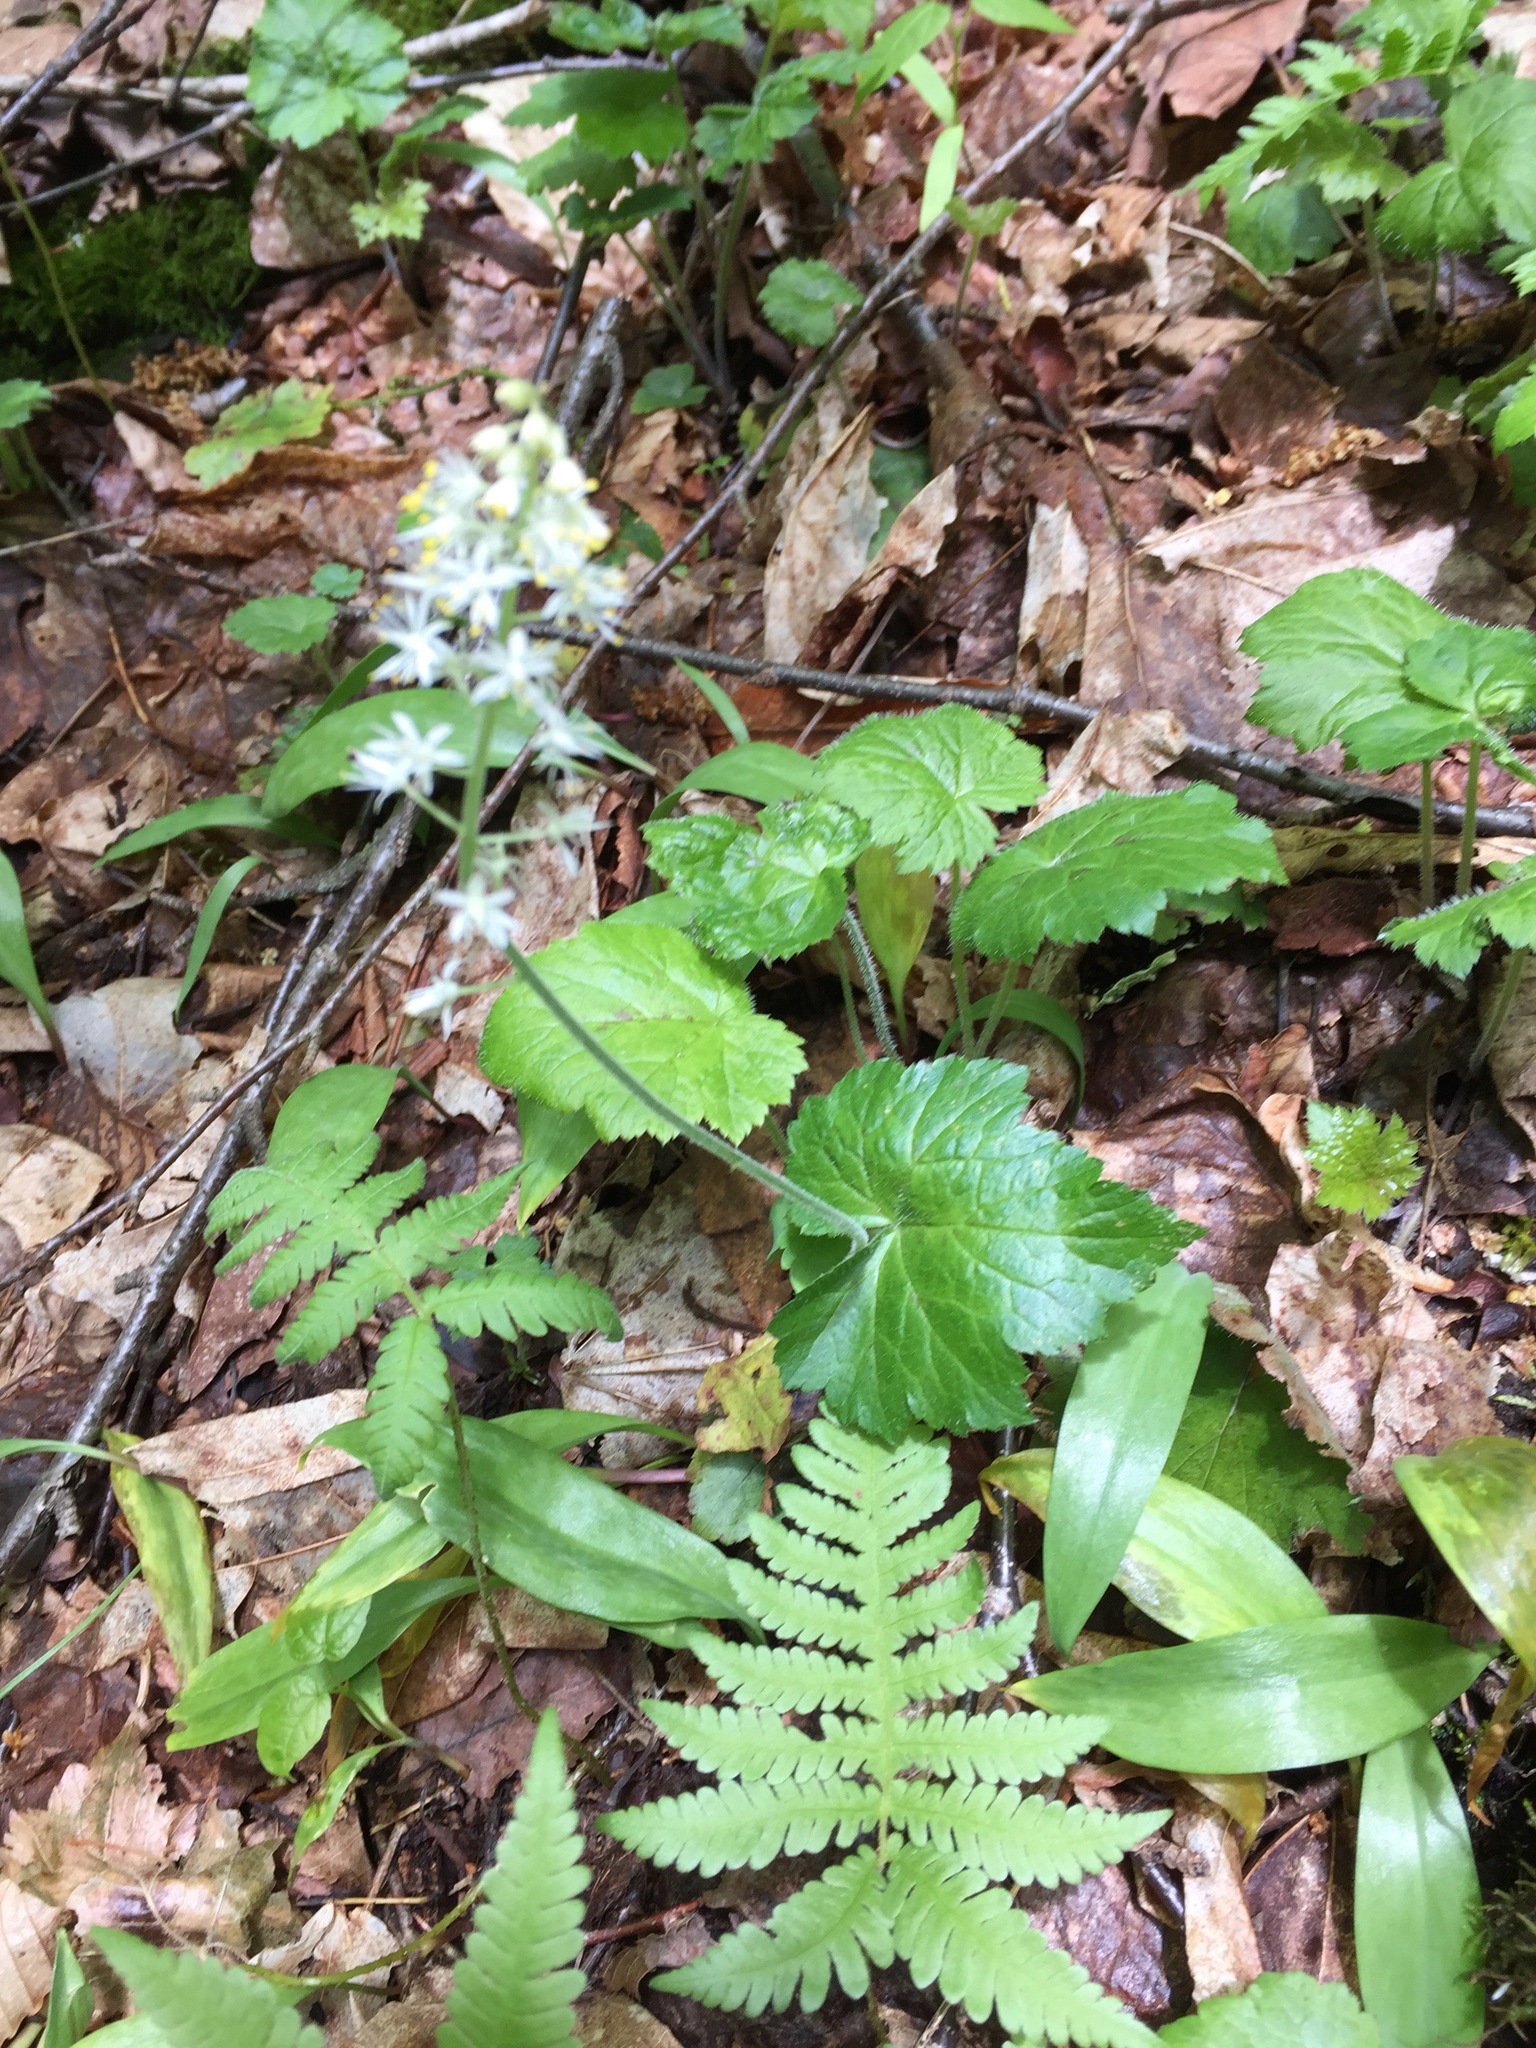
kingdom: Plantae
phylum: Tracheophyta
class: Magnoliopsida
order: Saxifragales
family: Saxifragaceae
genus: Tiarella
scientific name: Tiarella stolonifera
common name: Stoloniferous foamflower
